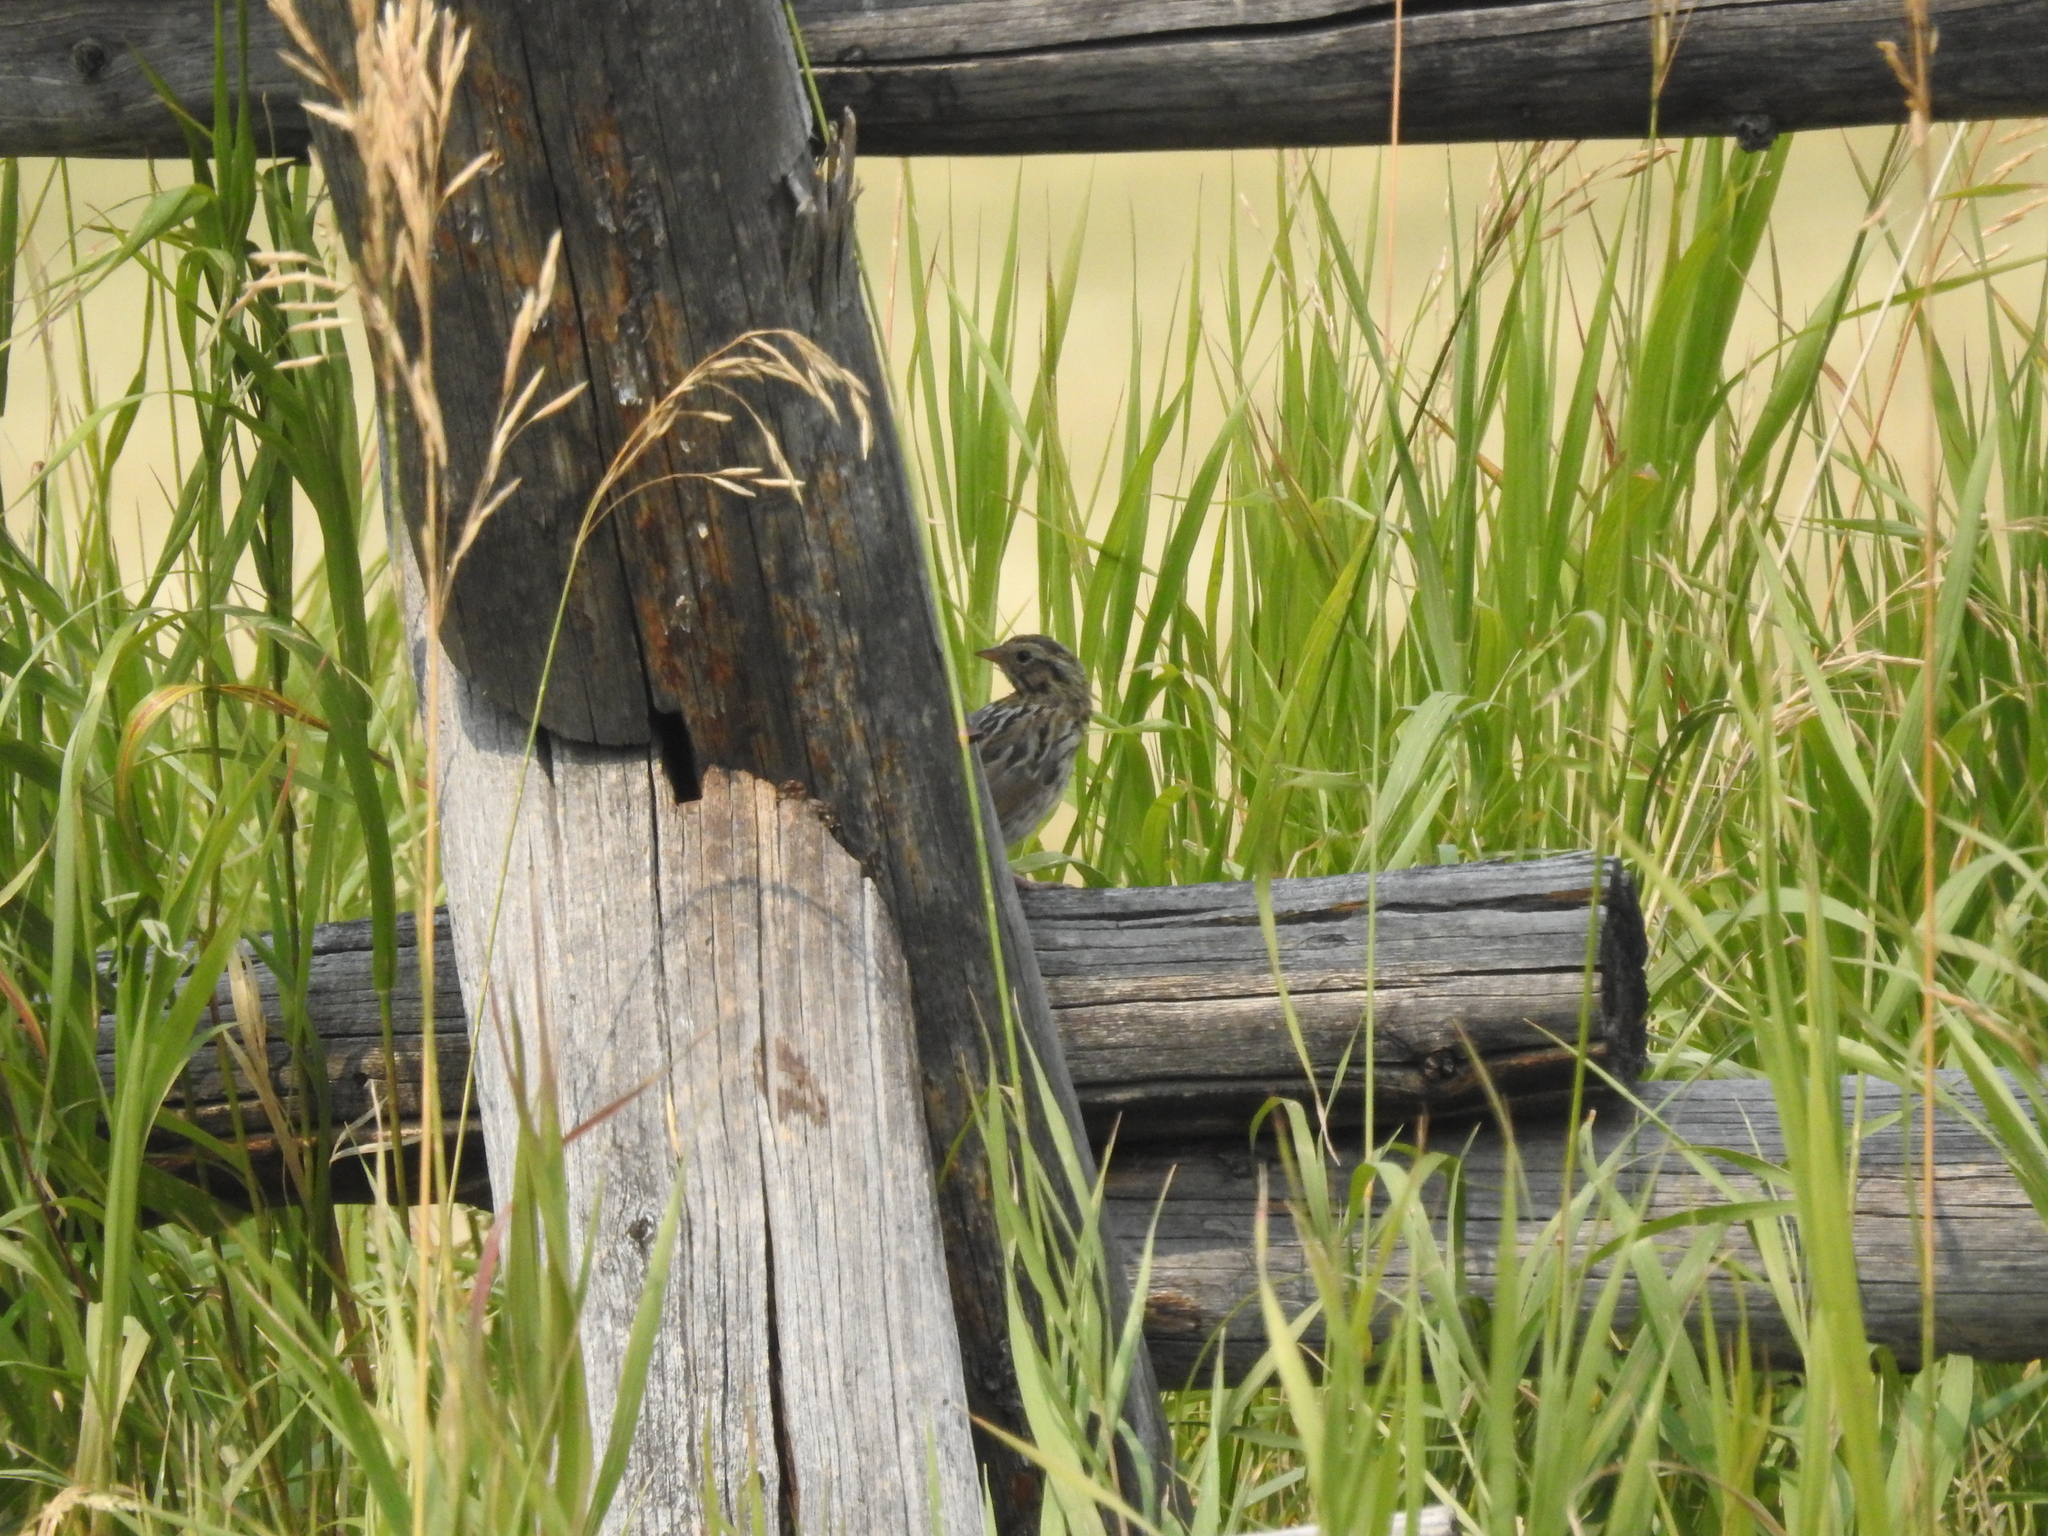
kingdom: Animalia
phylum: Chordata
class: Aves
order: Passeriformes
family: Passerellidae
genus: Passerculus
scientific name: Passerculus sandwichensis
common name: Savannah sparrow
